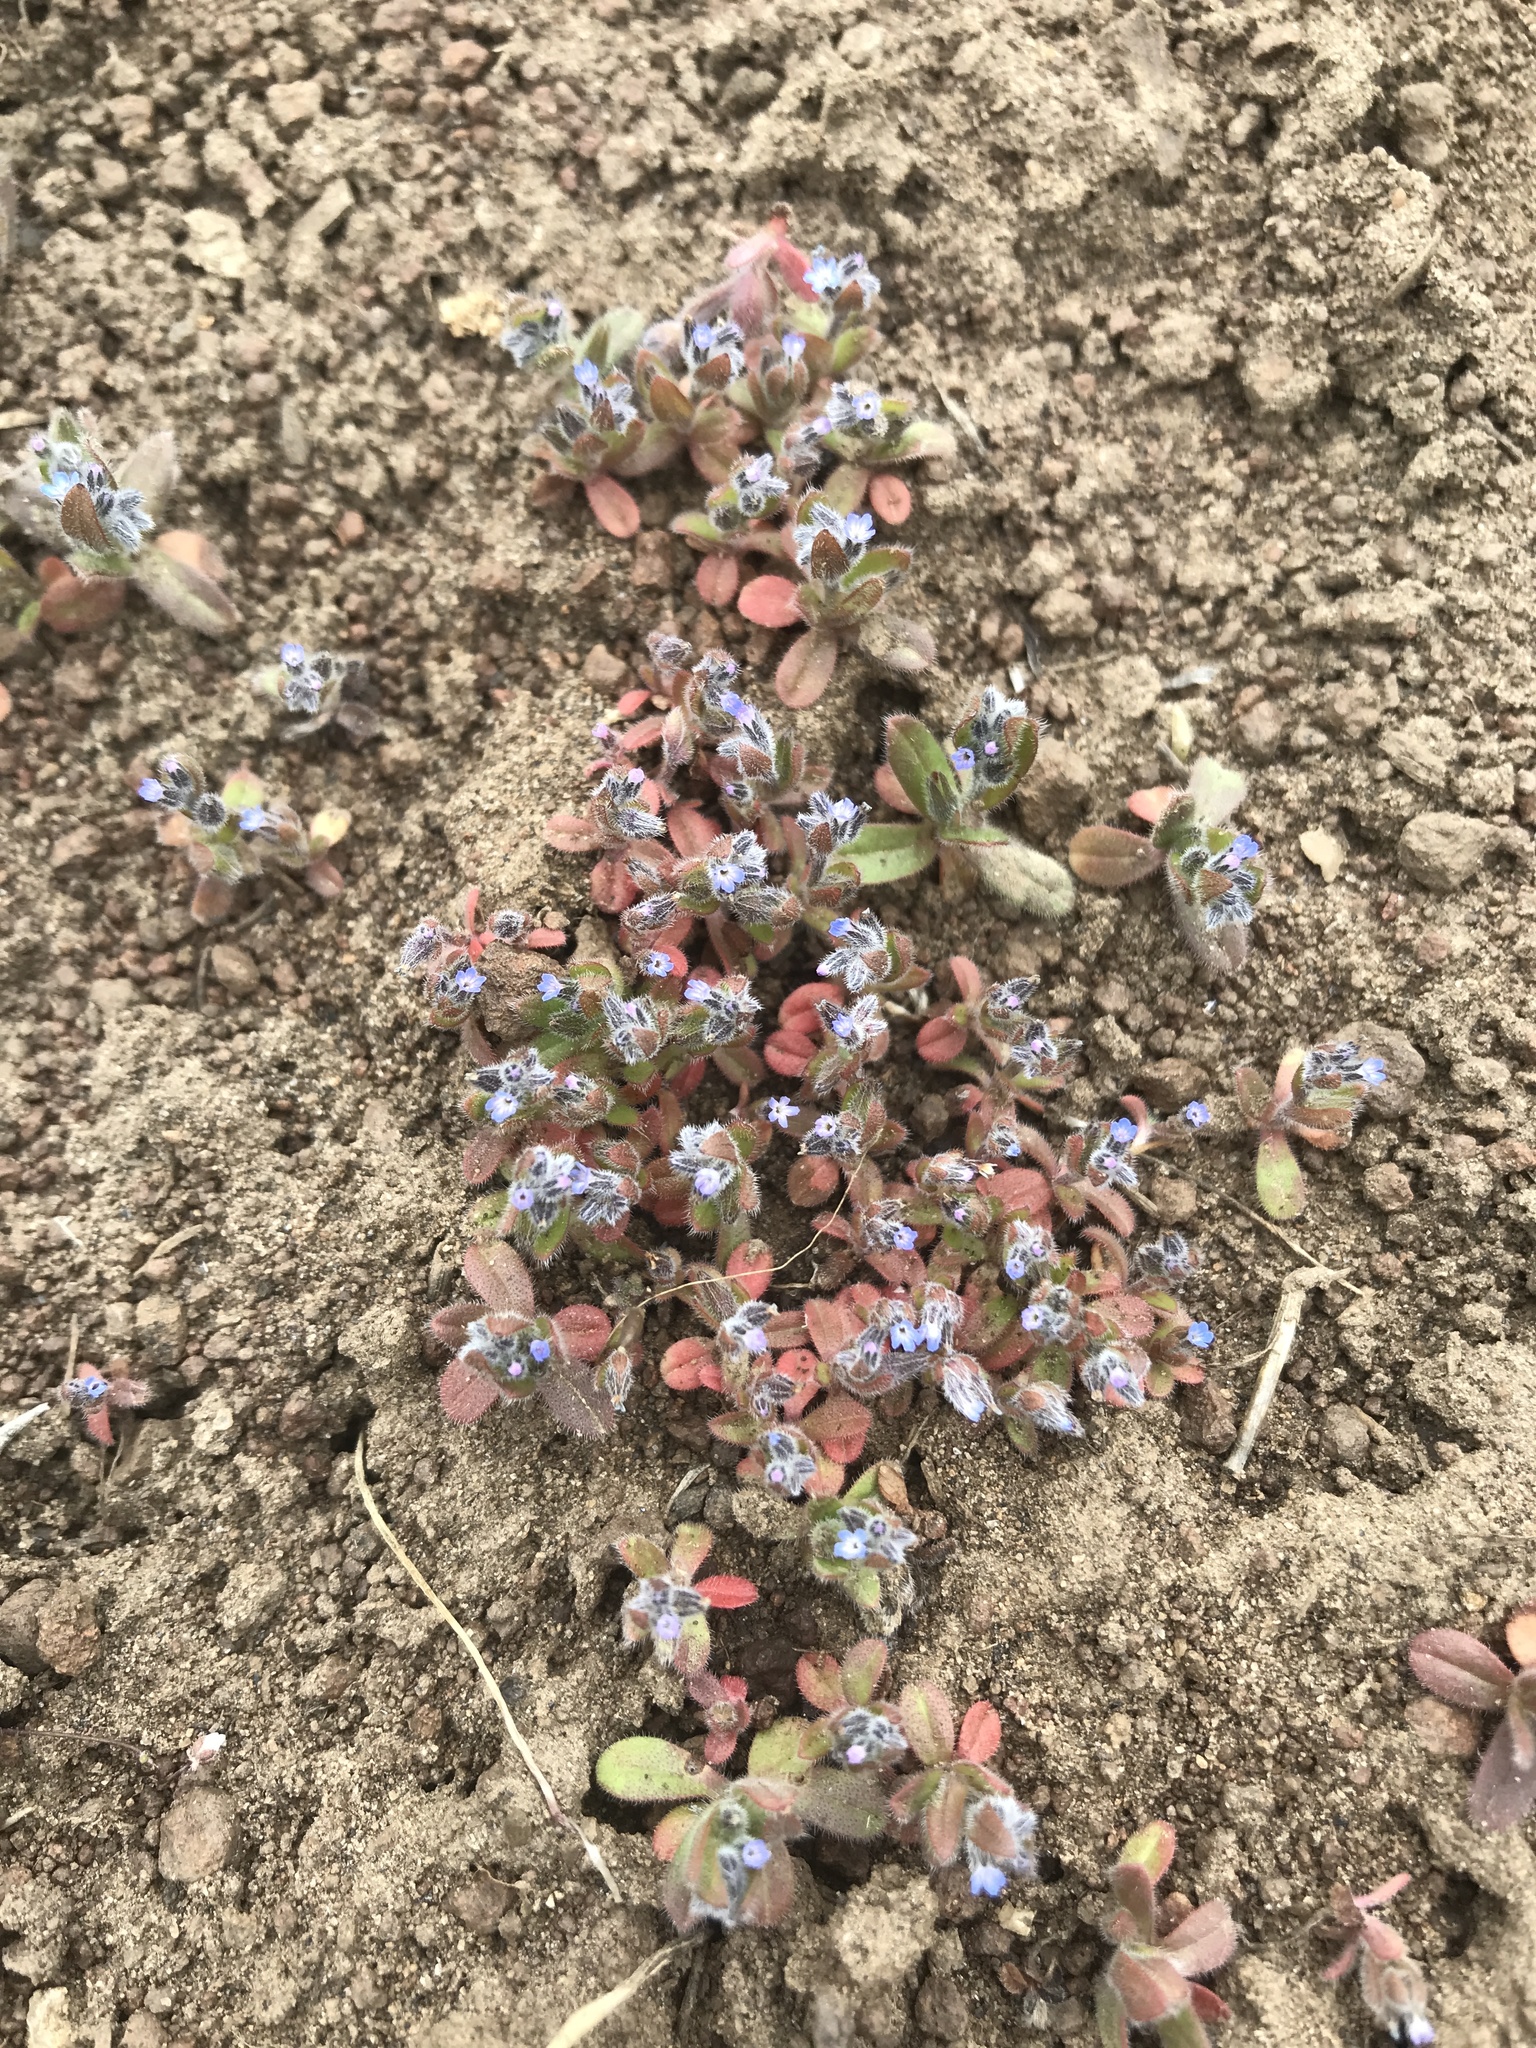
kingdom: Plantae
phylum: Tracheophyta
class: Magnoliopsida
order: Boraginales
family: Boraginaceae
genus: Myosotis
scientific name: Myosotis stricta
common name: Strict forget-me-not
